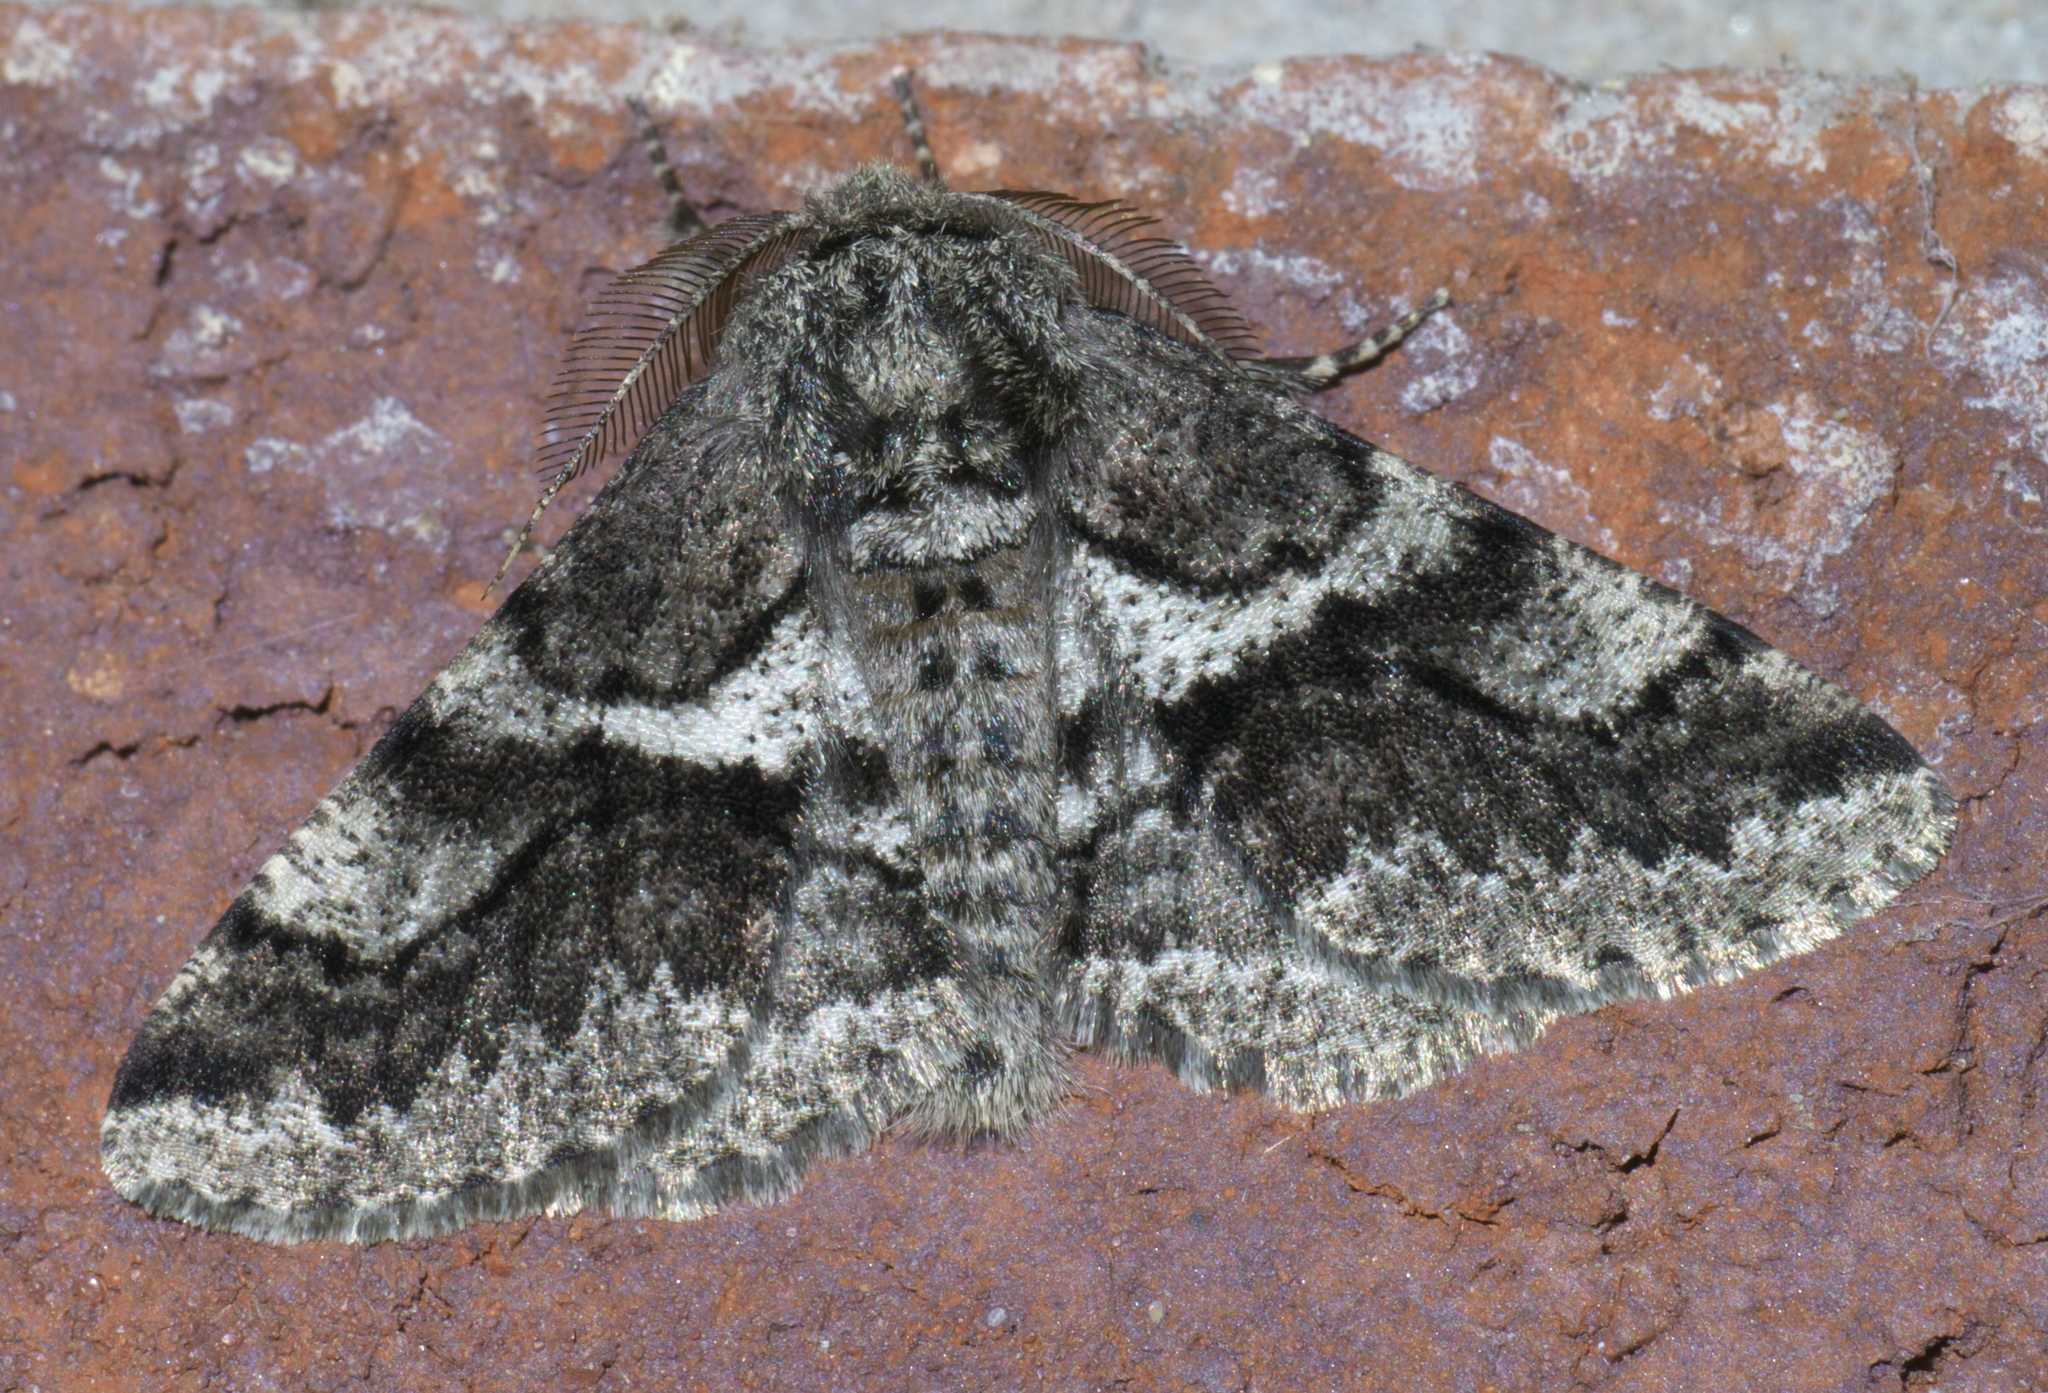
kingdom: Animalia
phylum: Arthropoda
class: Insecta
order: Lepidoptera
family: Geometridae
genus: Lycia
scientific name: Lycia ypsilon
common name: Wooly gray
